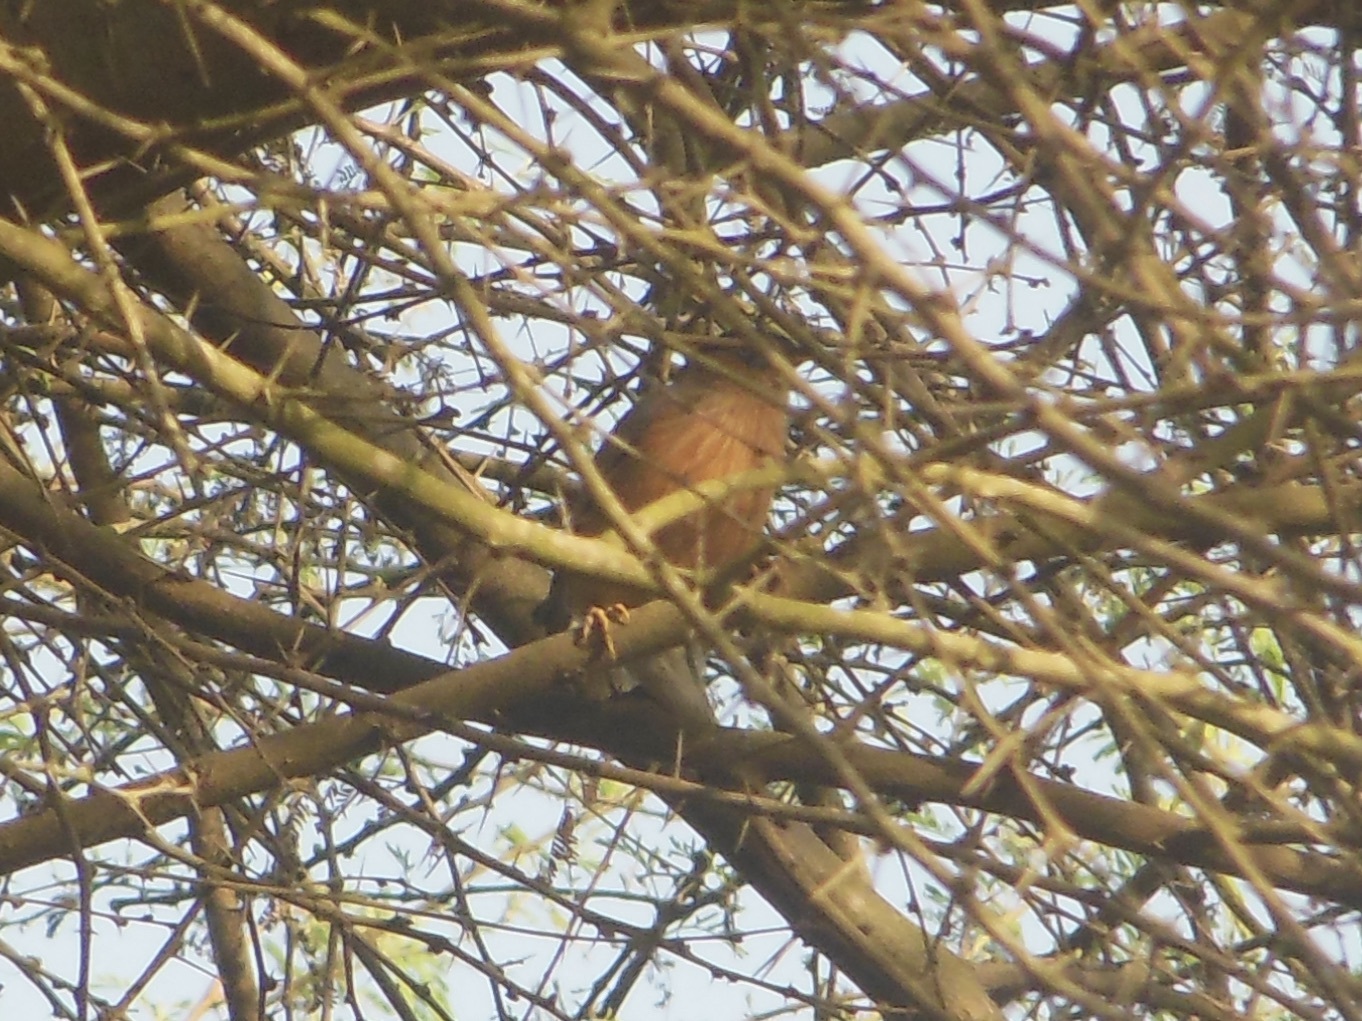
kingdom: Animalia
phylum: Chordata
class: Aves
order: Passeriformes
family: Sturnidae
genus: Sturnia
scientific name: Sturnia pagodarum
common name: Brahminy starling
